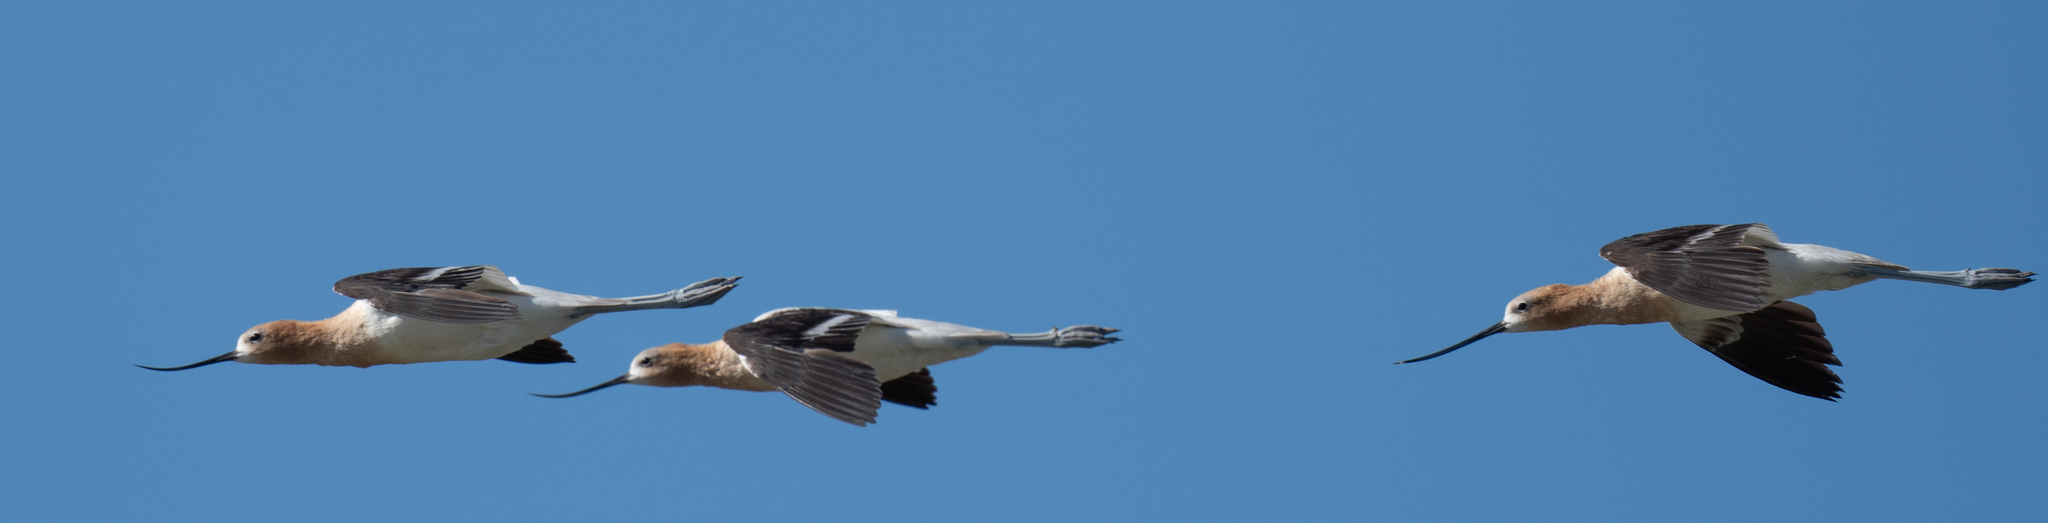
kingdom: Animalia
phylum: Chordata
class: Aves
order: Charadriiformes
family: Recurvirostridae
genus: Recurvirostra
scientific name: Recurvirostra americana
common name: American avocet
